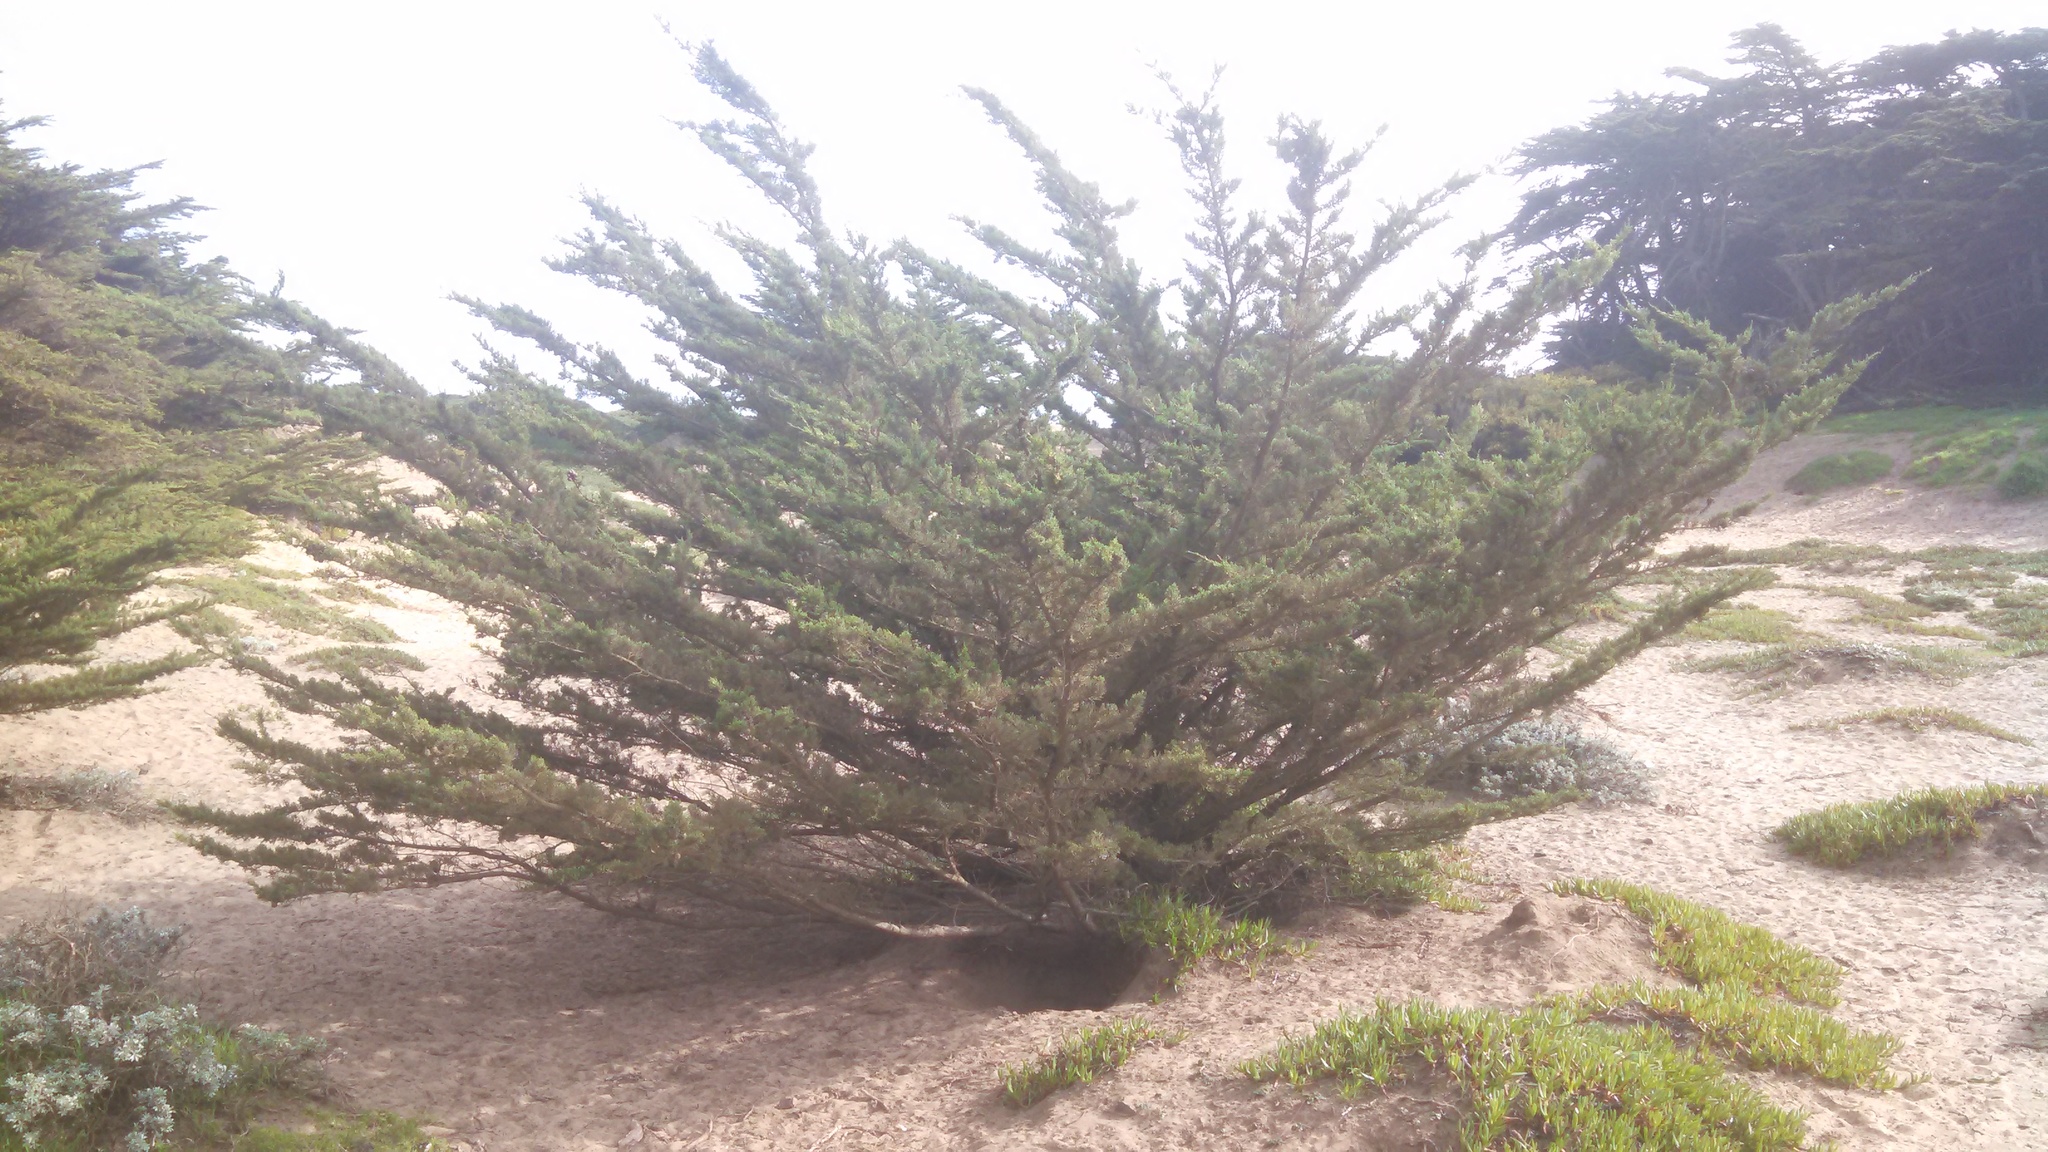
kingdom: Plantae
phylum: Tracheophyta
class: Pinopsida
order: Pinales
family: Cupressaceae
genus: Cupressus
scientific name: Cupressus macrocarpa
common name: Monterey cypress
